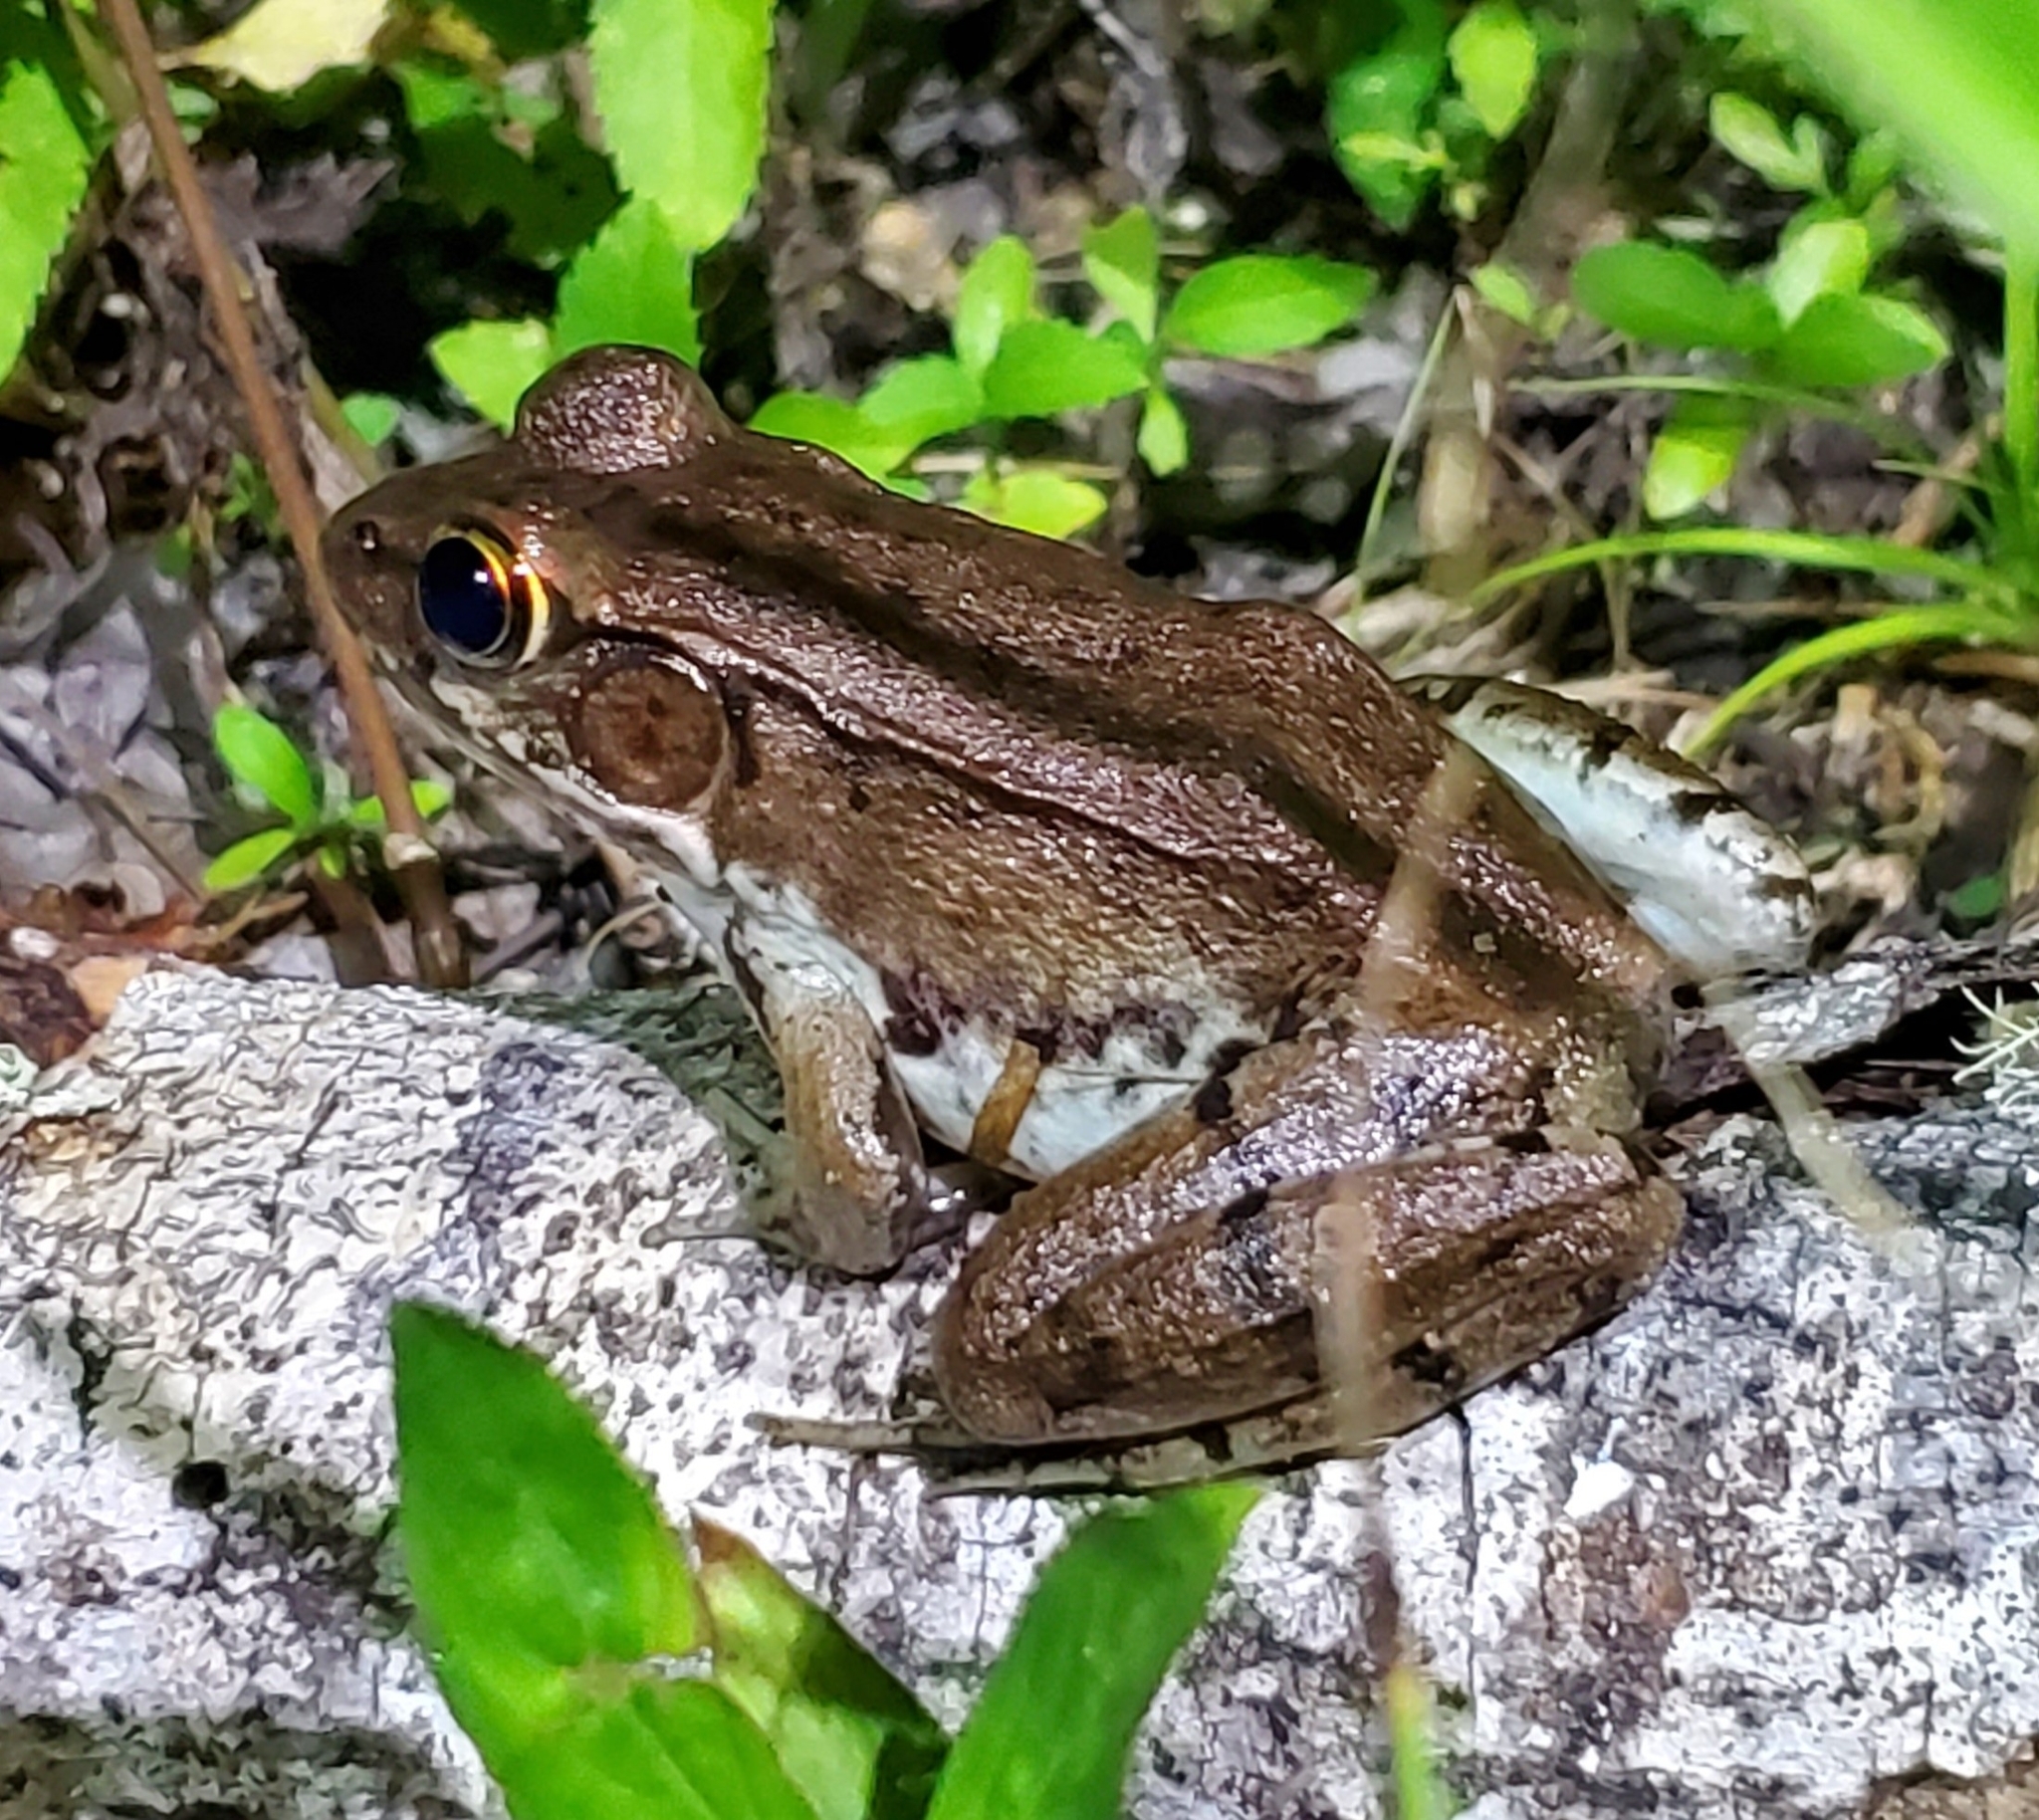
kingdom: Animalia
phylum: Chordata
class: Amphibia
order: Anura
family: Ranidae
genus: Lithobates
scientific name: Lithobates clamitans
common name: Green frog
